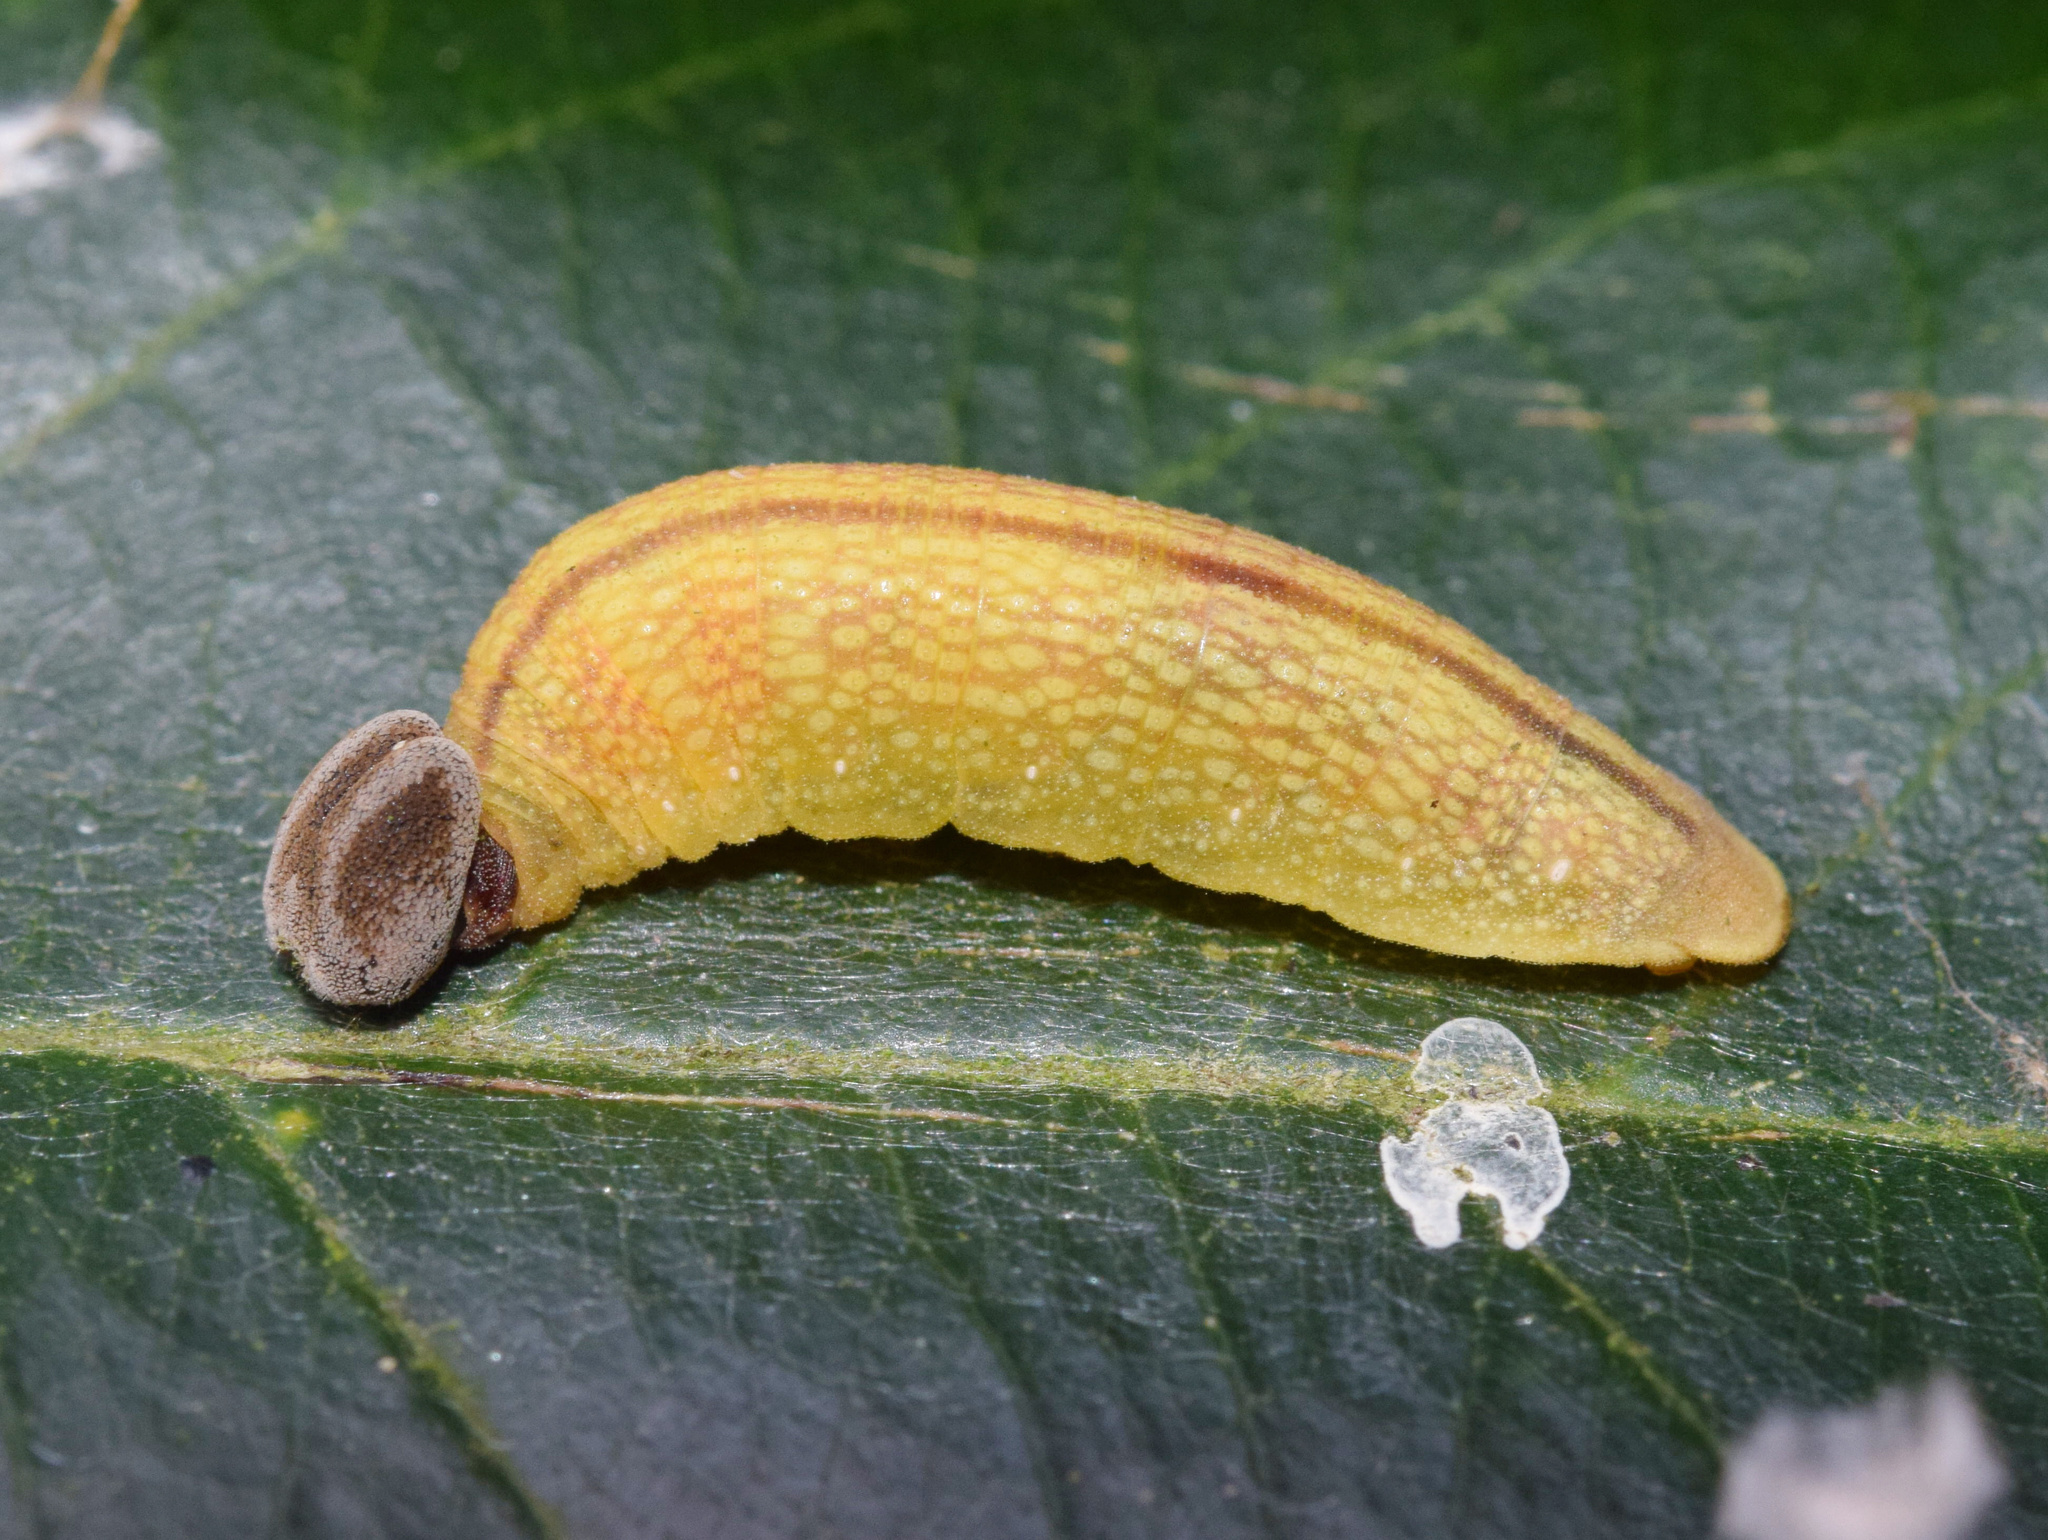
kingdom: Animalia
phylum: Arthropoda
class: Insecta
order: Lepidoptera
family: Hesperiidae
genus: Parosmodes
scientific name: Parosmodes morantii
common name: Morant's orange
